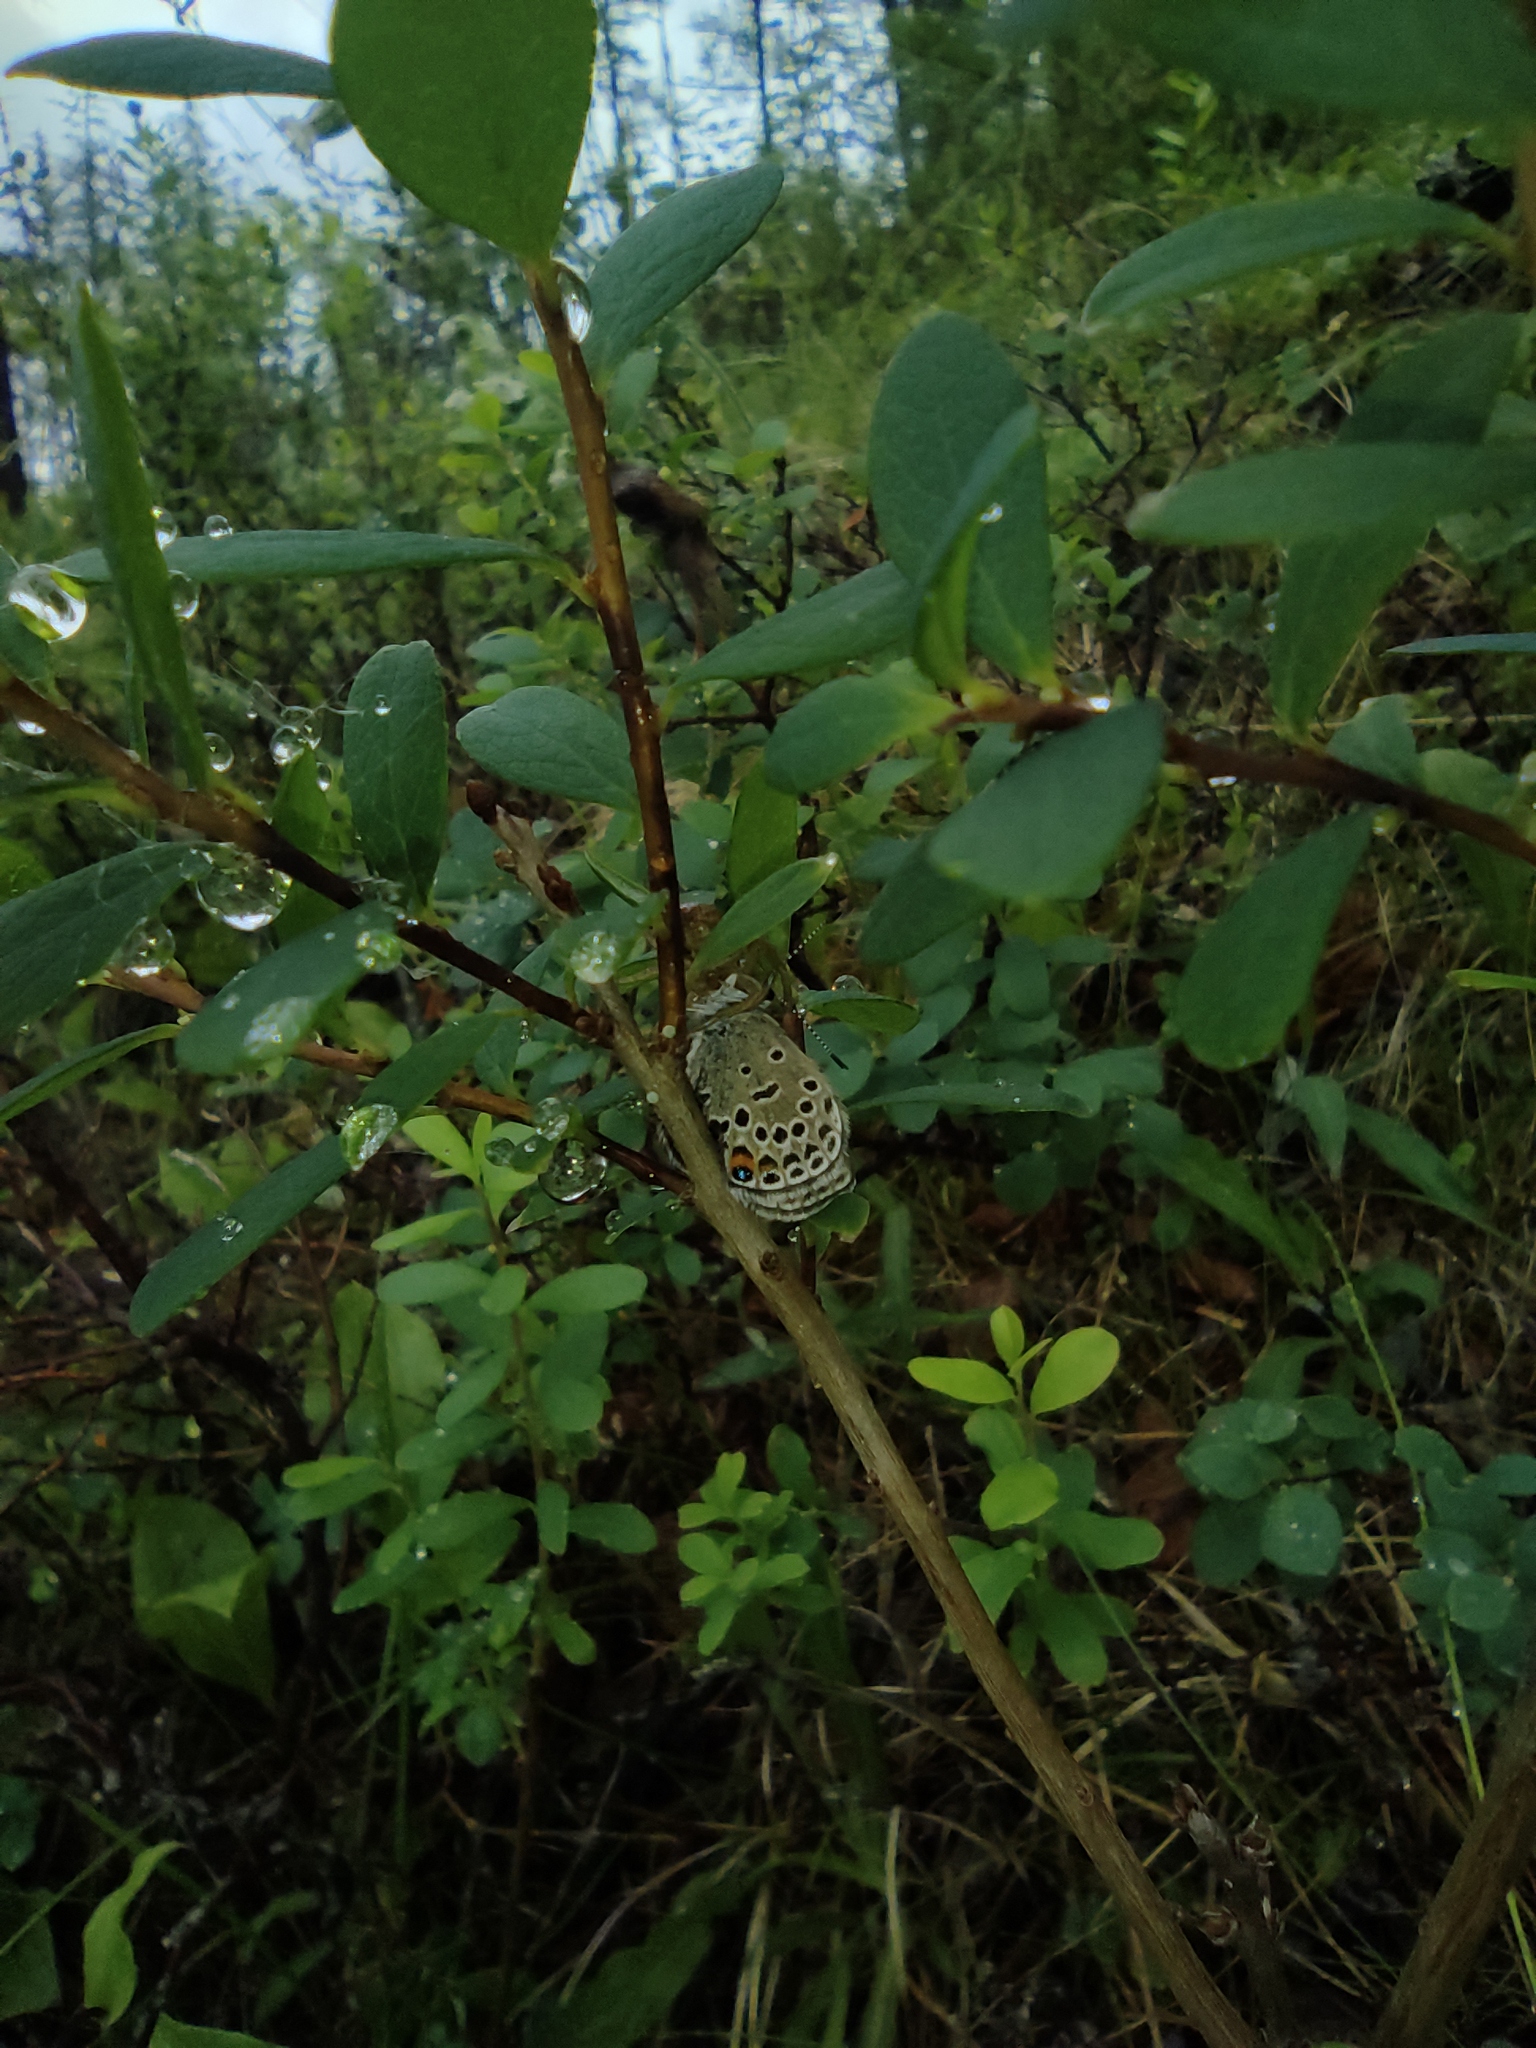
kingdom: Animalia
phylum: Arthropoda
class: Insecta
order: Lepidoptera
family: Lycaenidae
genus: Vacciniina
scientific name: Vacciniina optilete
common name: Cranberry blue
